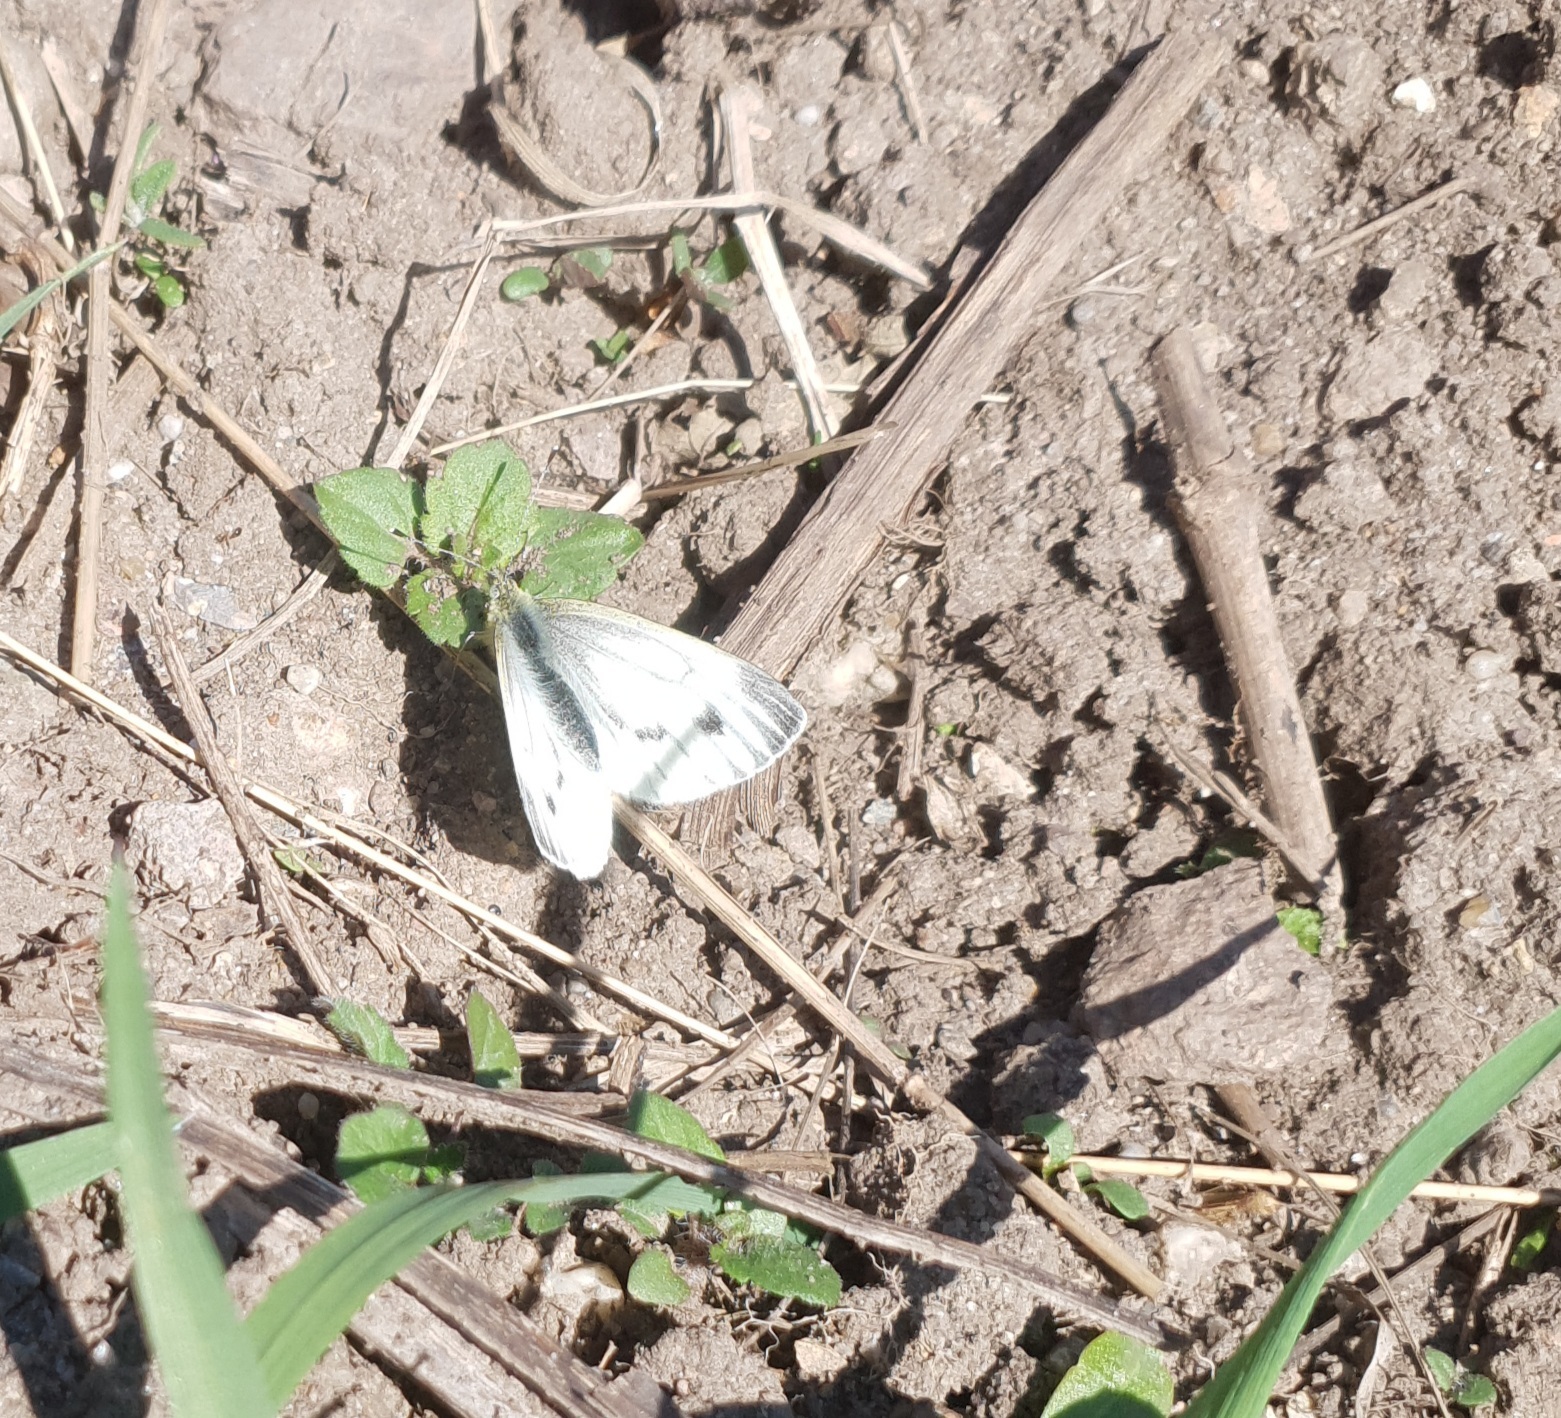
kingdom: Animalia
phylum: Arthropoda
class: Insecta
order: Lepidoptera
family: Pieridae
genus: Pieris
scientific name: Pieris napi
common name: Green-veined white
